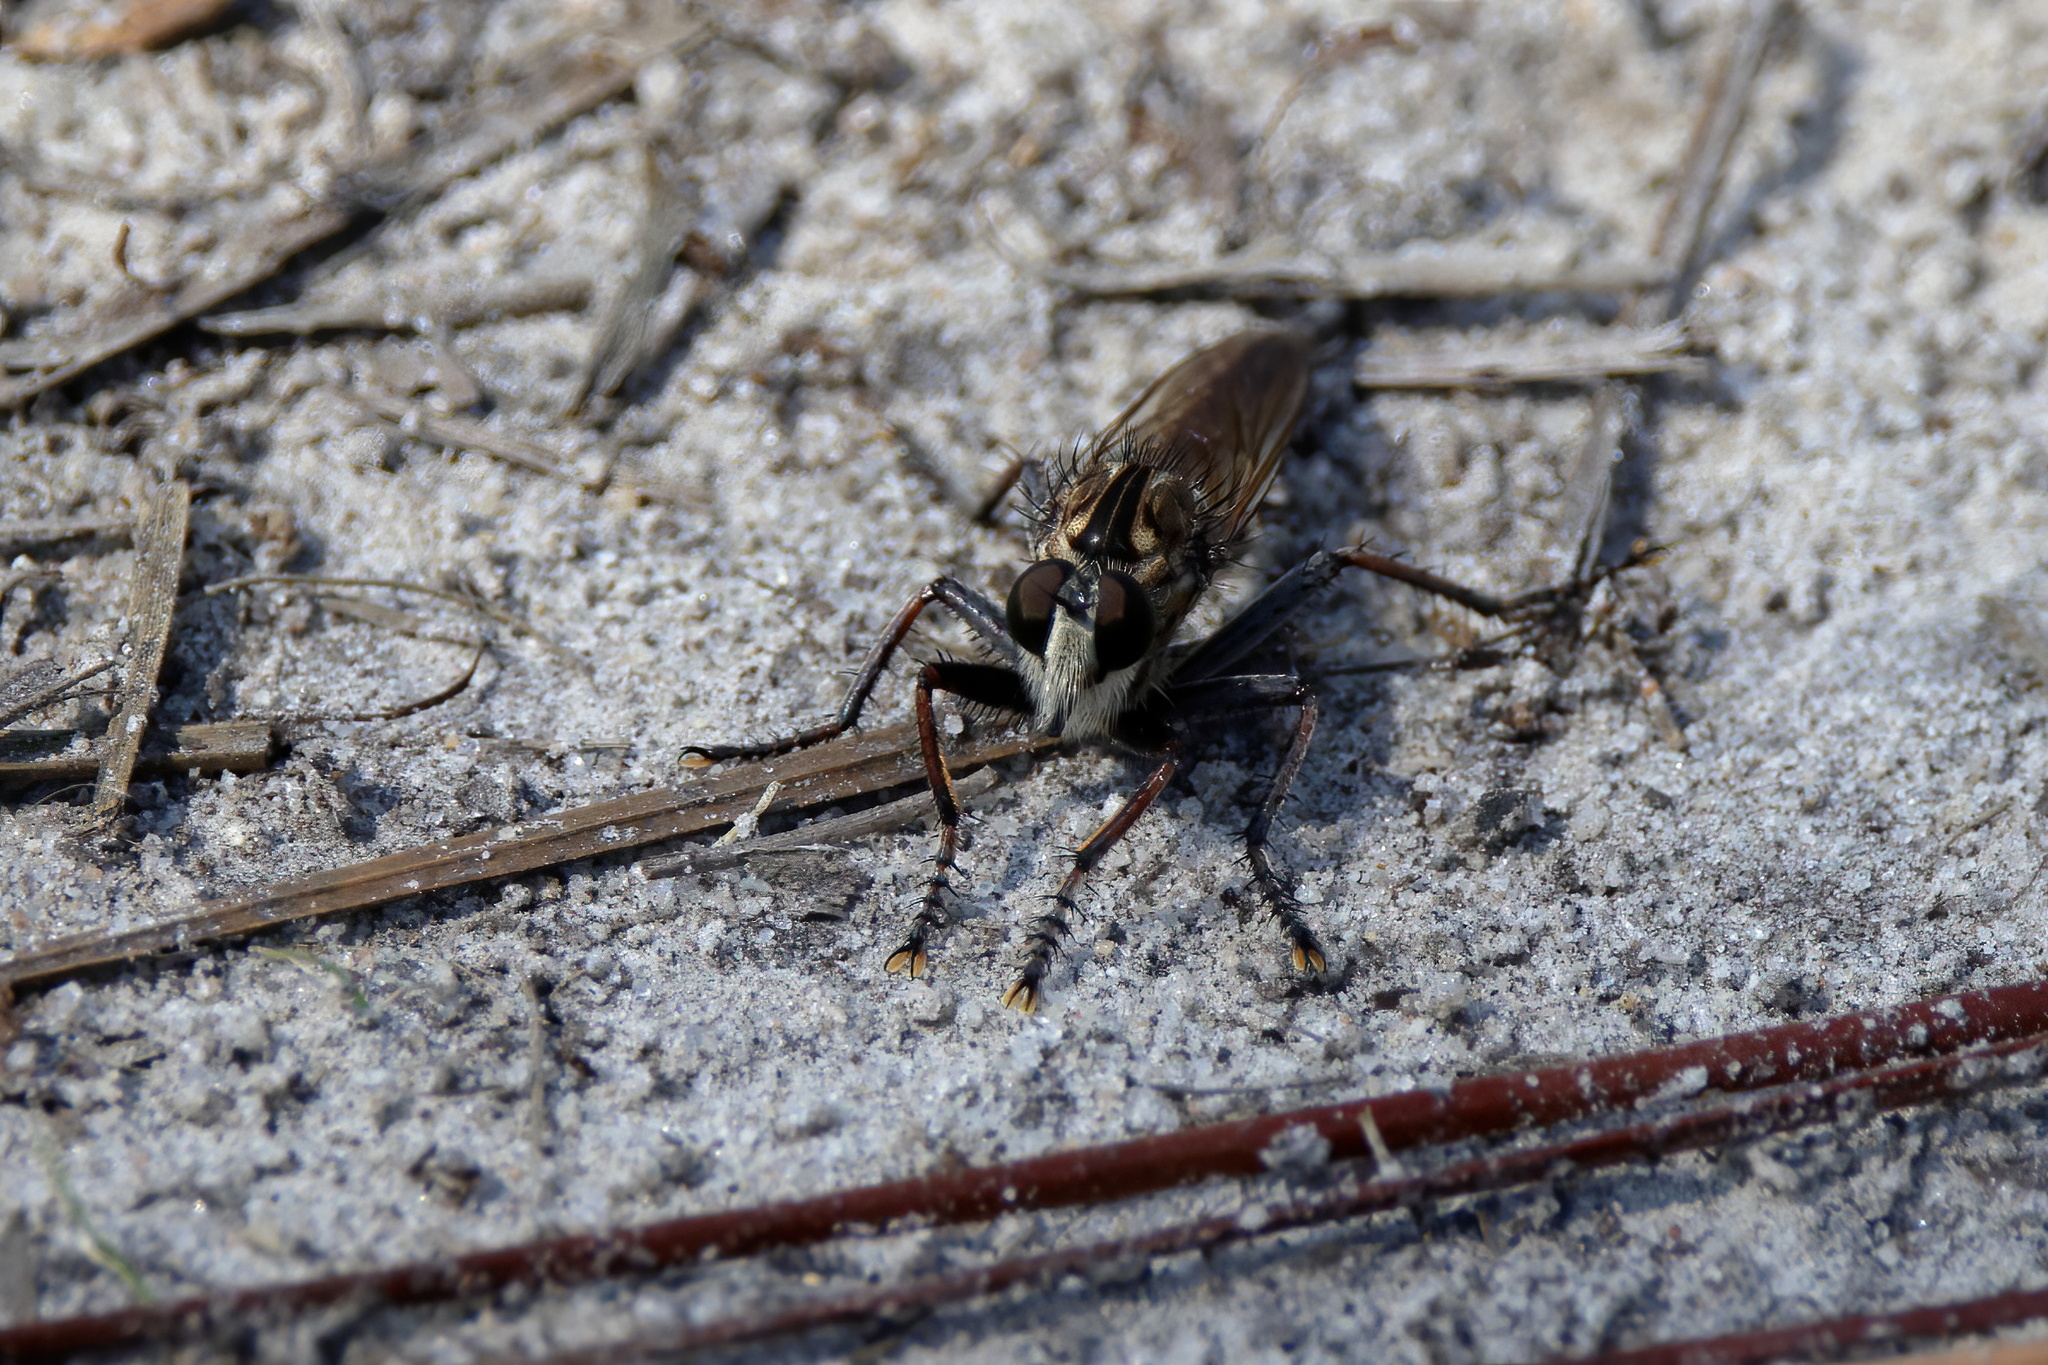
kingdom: Animalia
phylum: Arthropoda
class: Insecta
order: Diptera
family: Asilidae
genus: Proctacanthus
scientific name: Proctacanthus brevipennis
